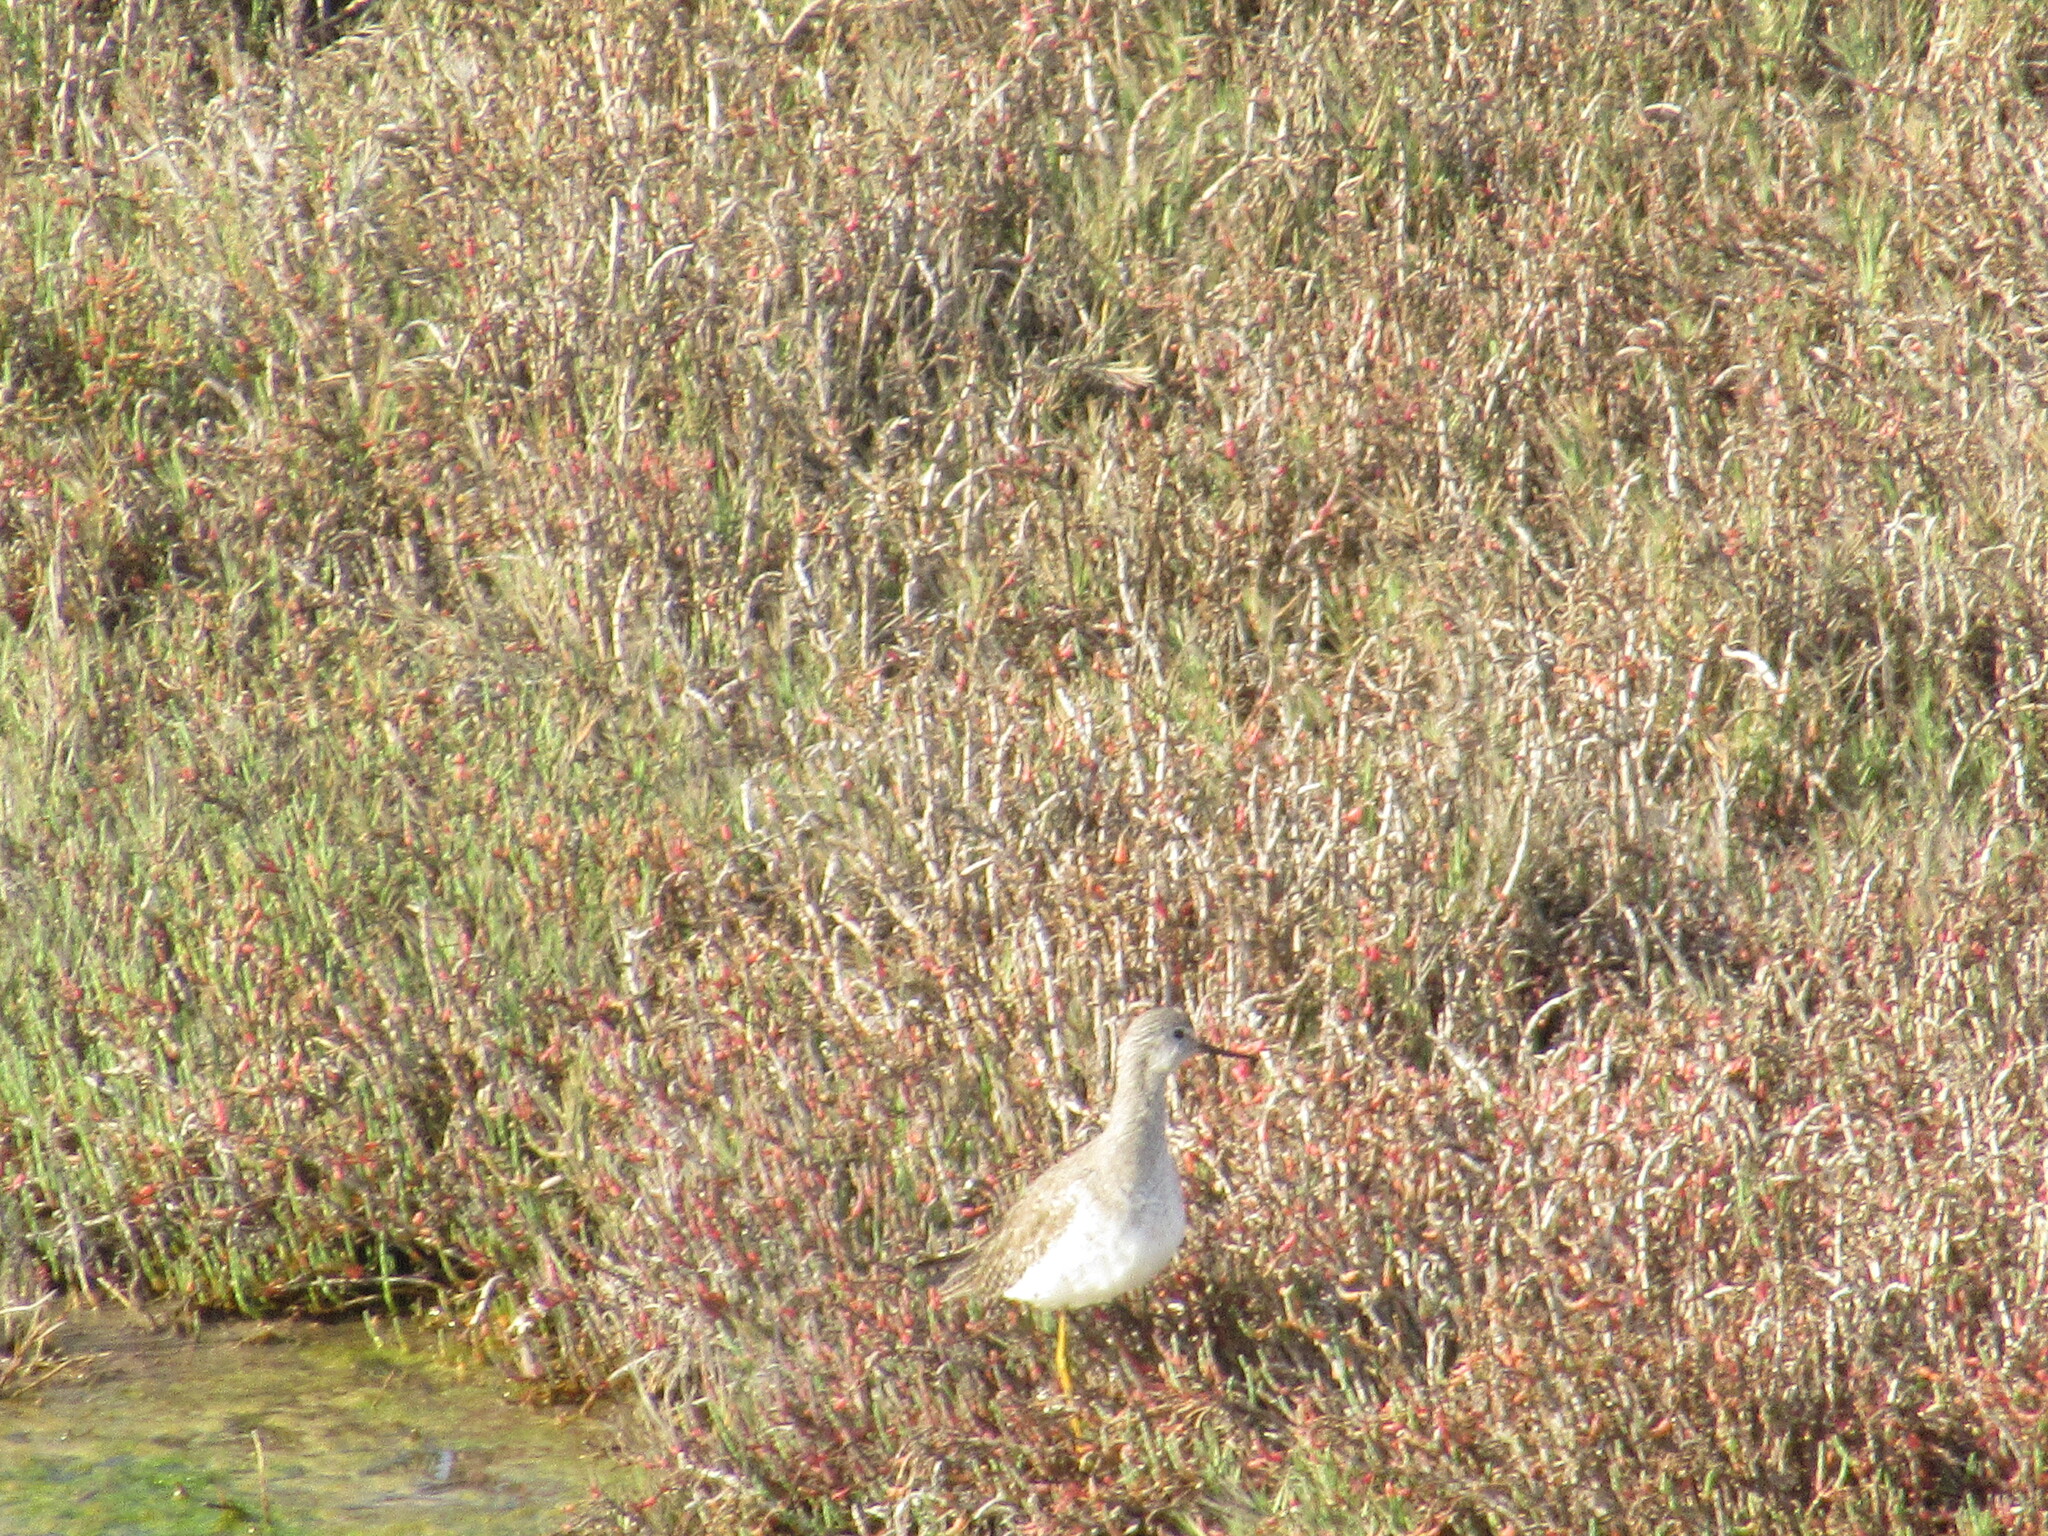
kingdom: Animalia
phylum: Chordata
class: Aves
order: Charadriiformes
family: Scolopacidae
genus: Tringa
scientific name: Tringa flavipes
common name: Lesser yellowlegs
